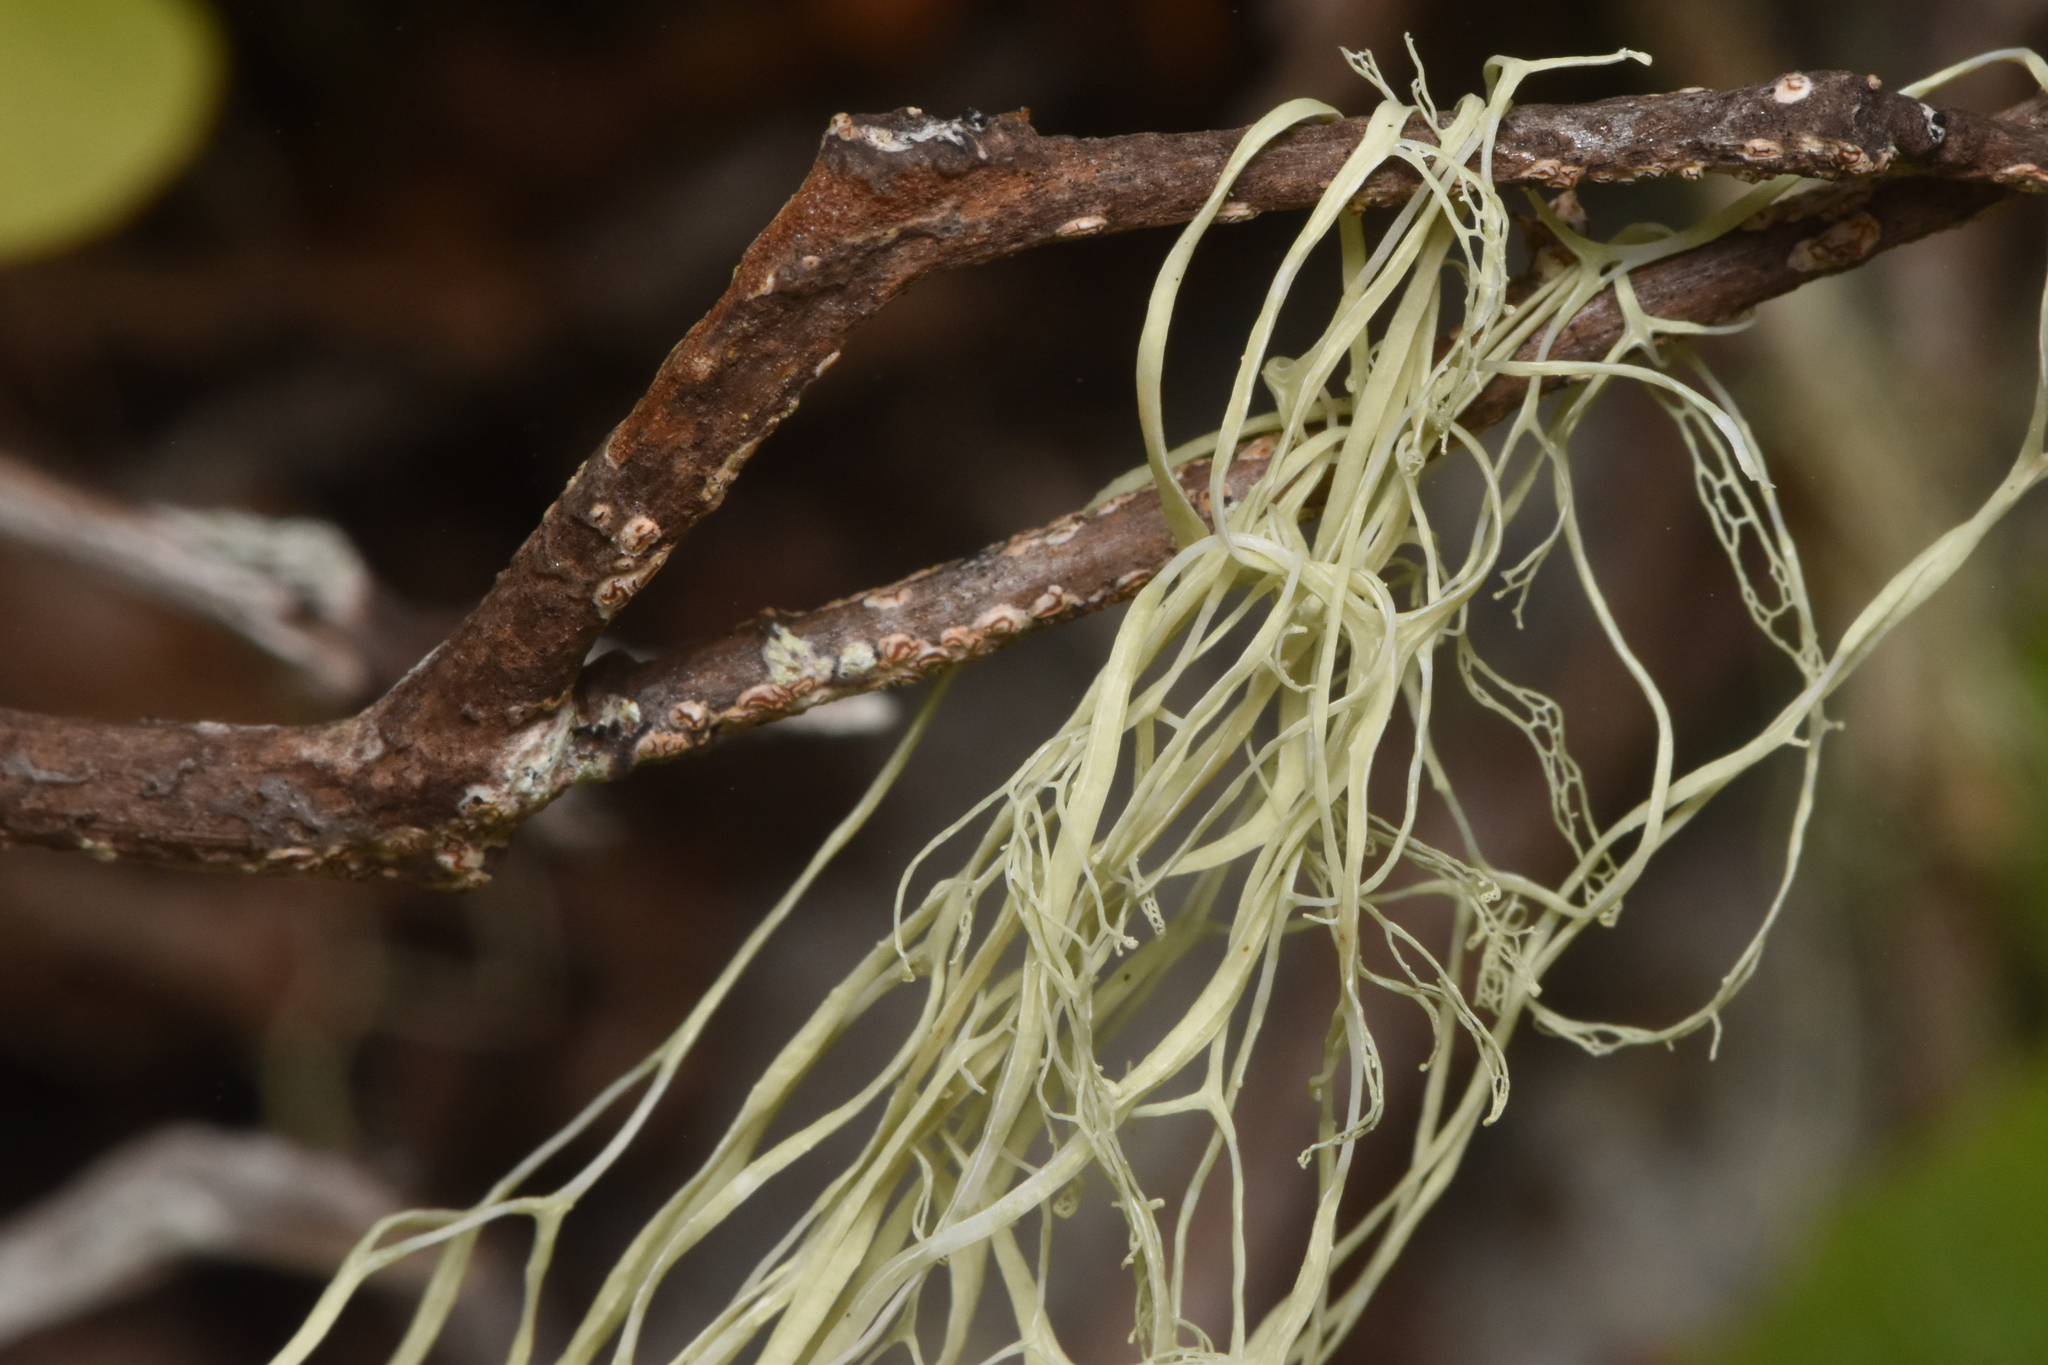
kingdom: Fungi
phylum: Ascomycota
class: Lecanoromycetes
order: Lecanorales
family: Ramalinaceae
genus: Ramalina
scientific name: Ramalina menziesii
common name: Lace lichen
